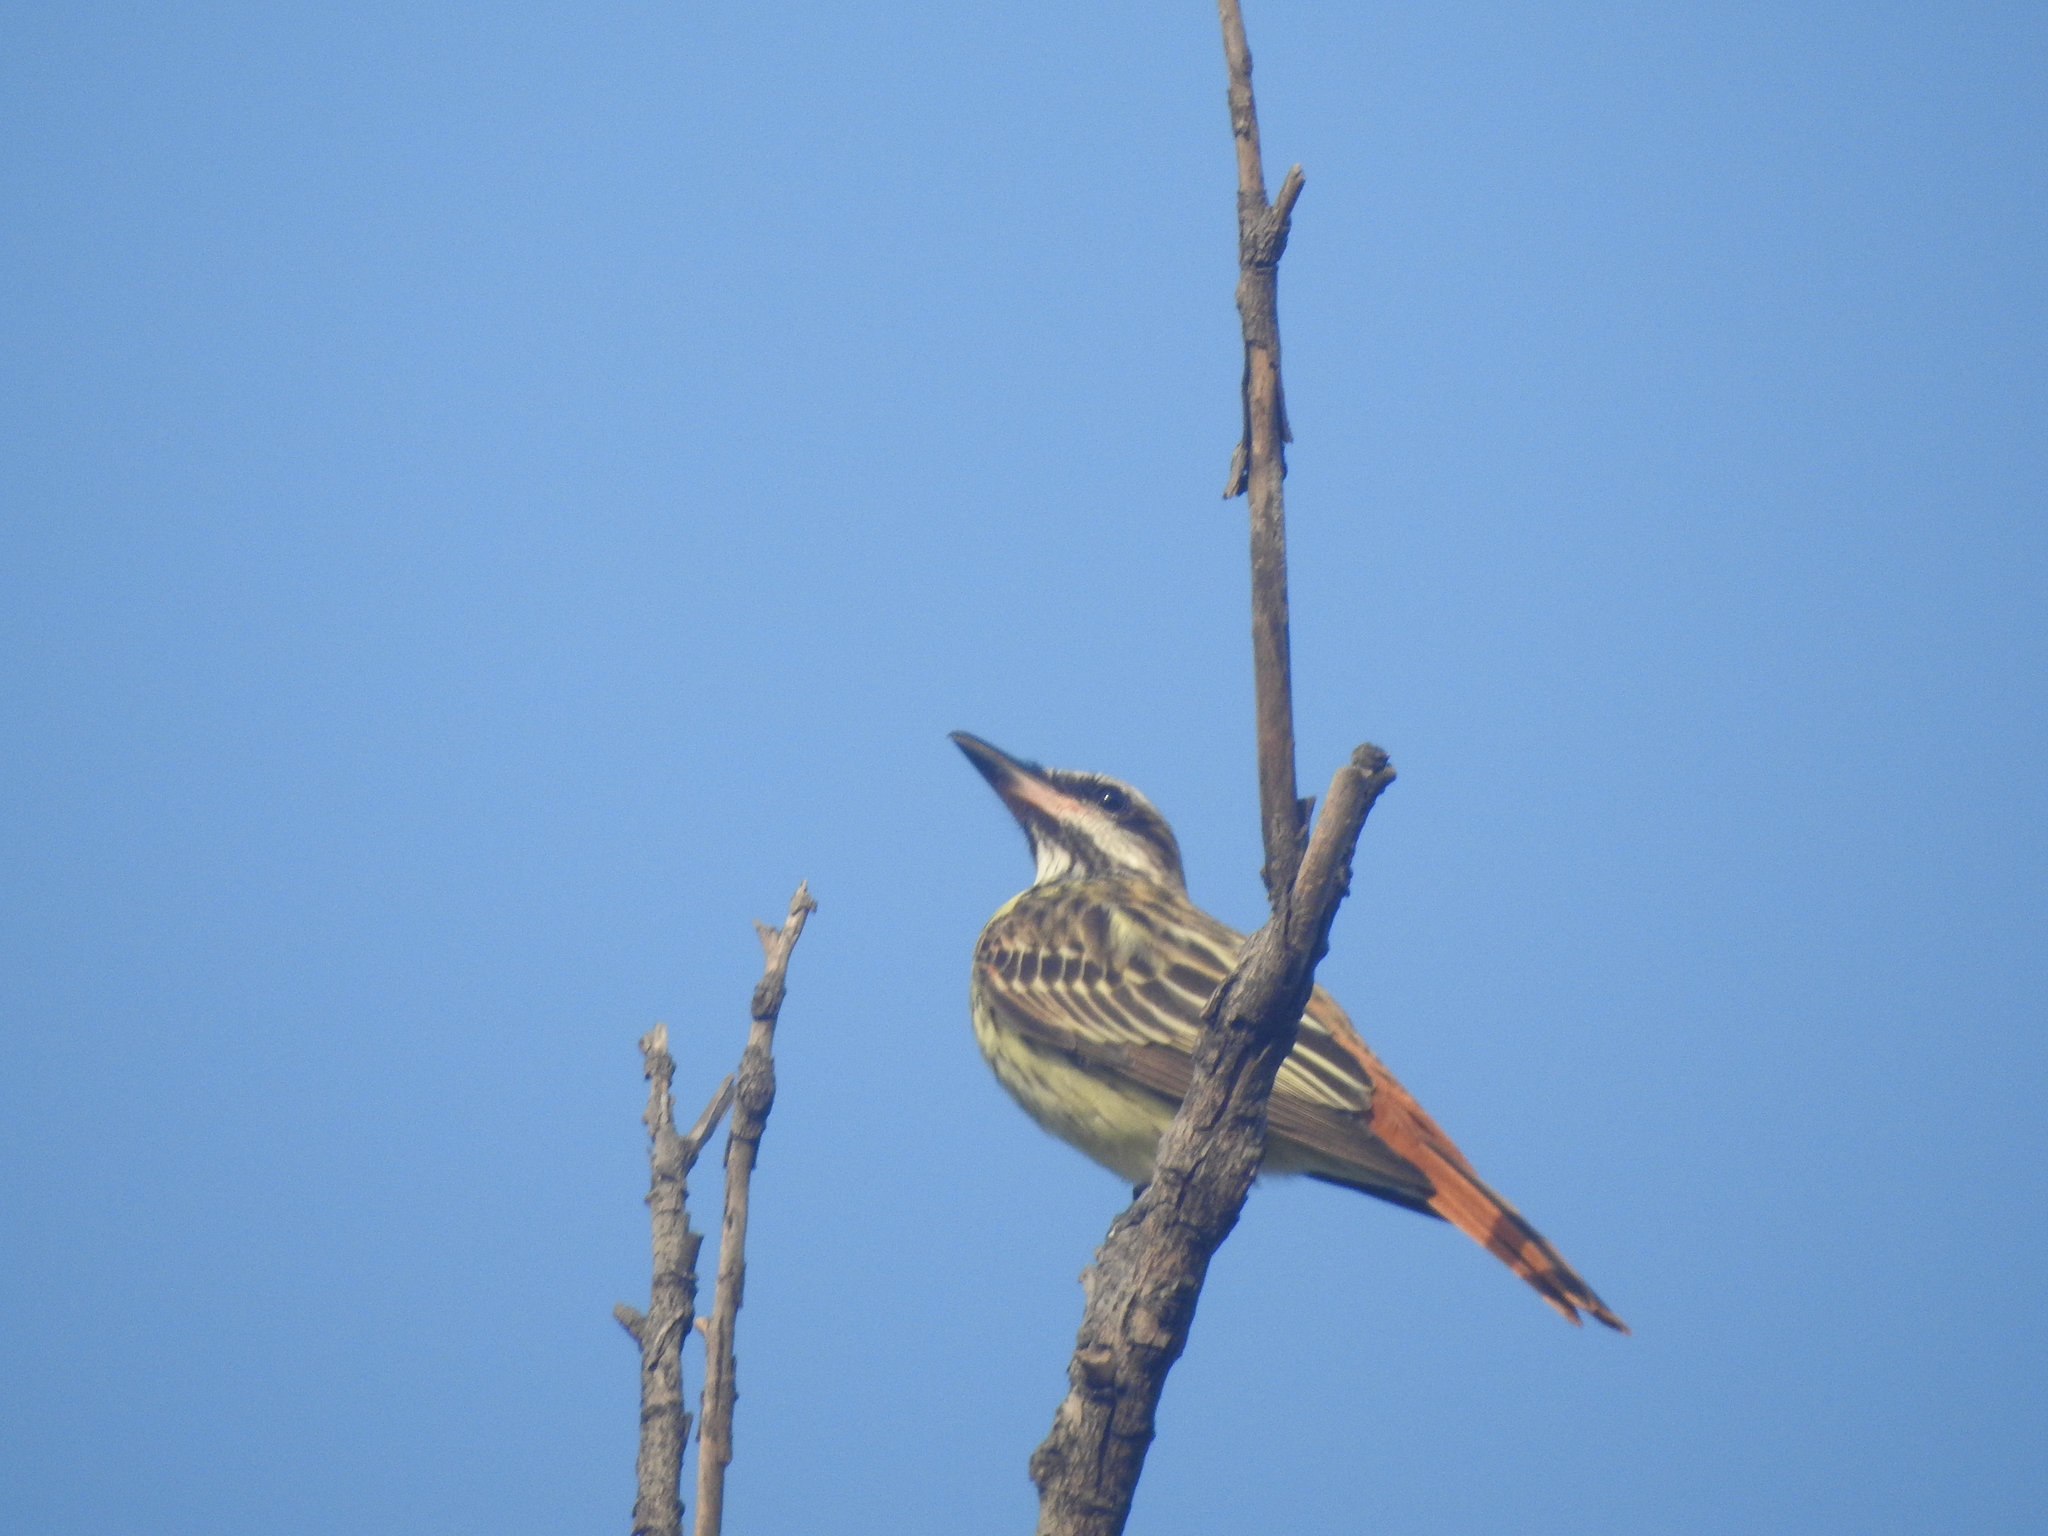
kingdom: Animalia
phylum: Chordata
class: Aves
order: Passeriformes
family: Tyrannidae
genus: Myiodynastes
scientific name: Myiodynastes luteiventris
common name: Sulphur-bellied flycatcher
